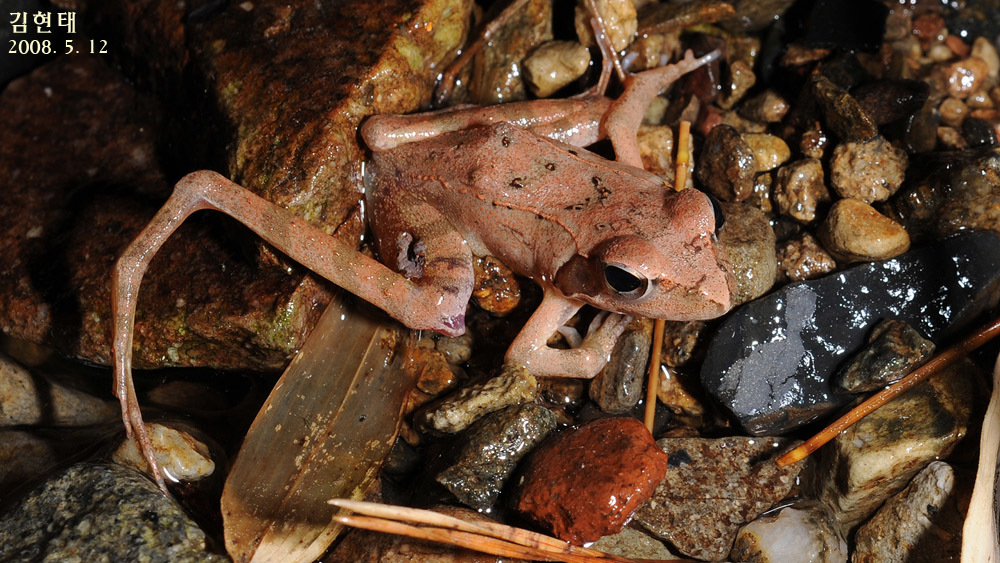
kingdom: Animalia
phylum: Chordata
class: Amphibia
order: Anura
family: Ranidae
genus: Rana
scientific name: Rana uenoi
